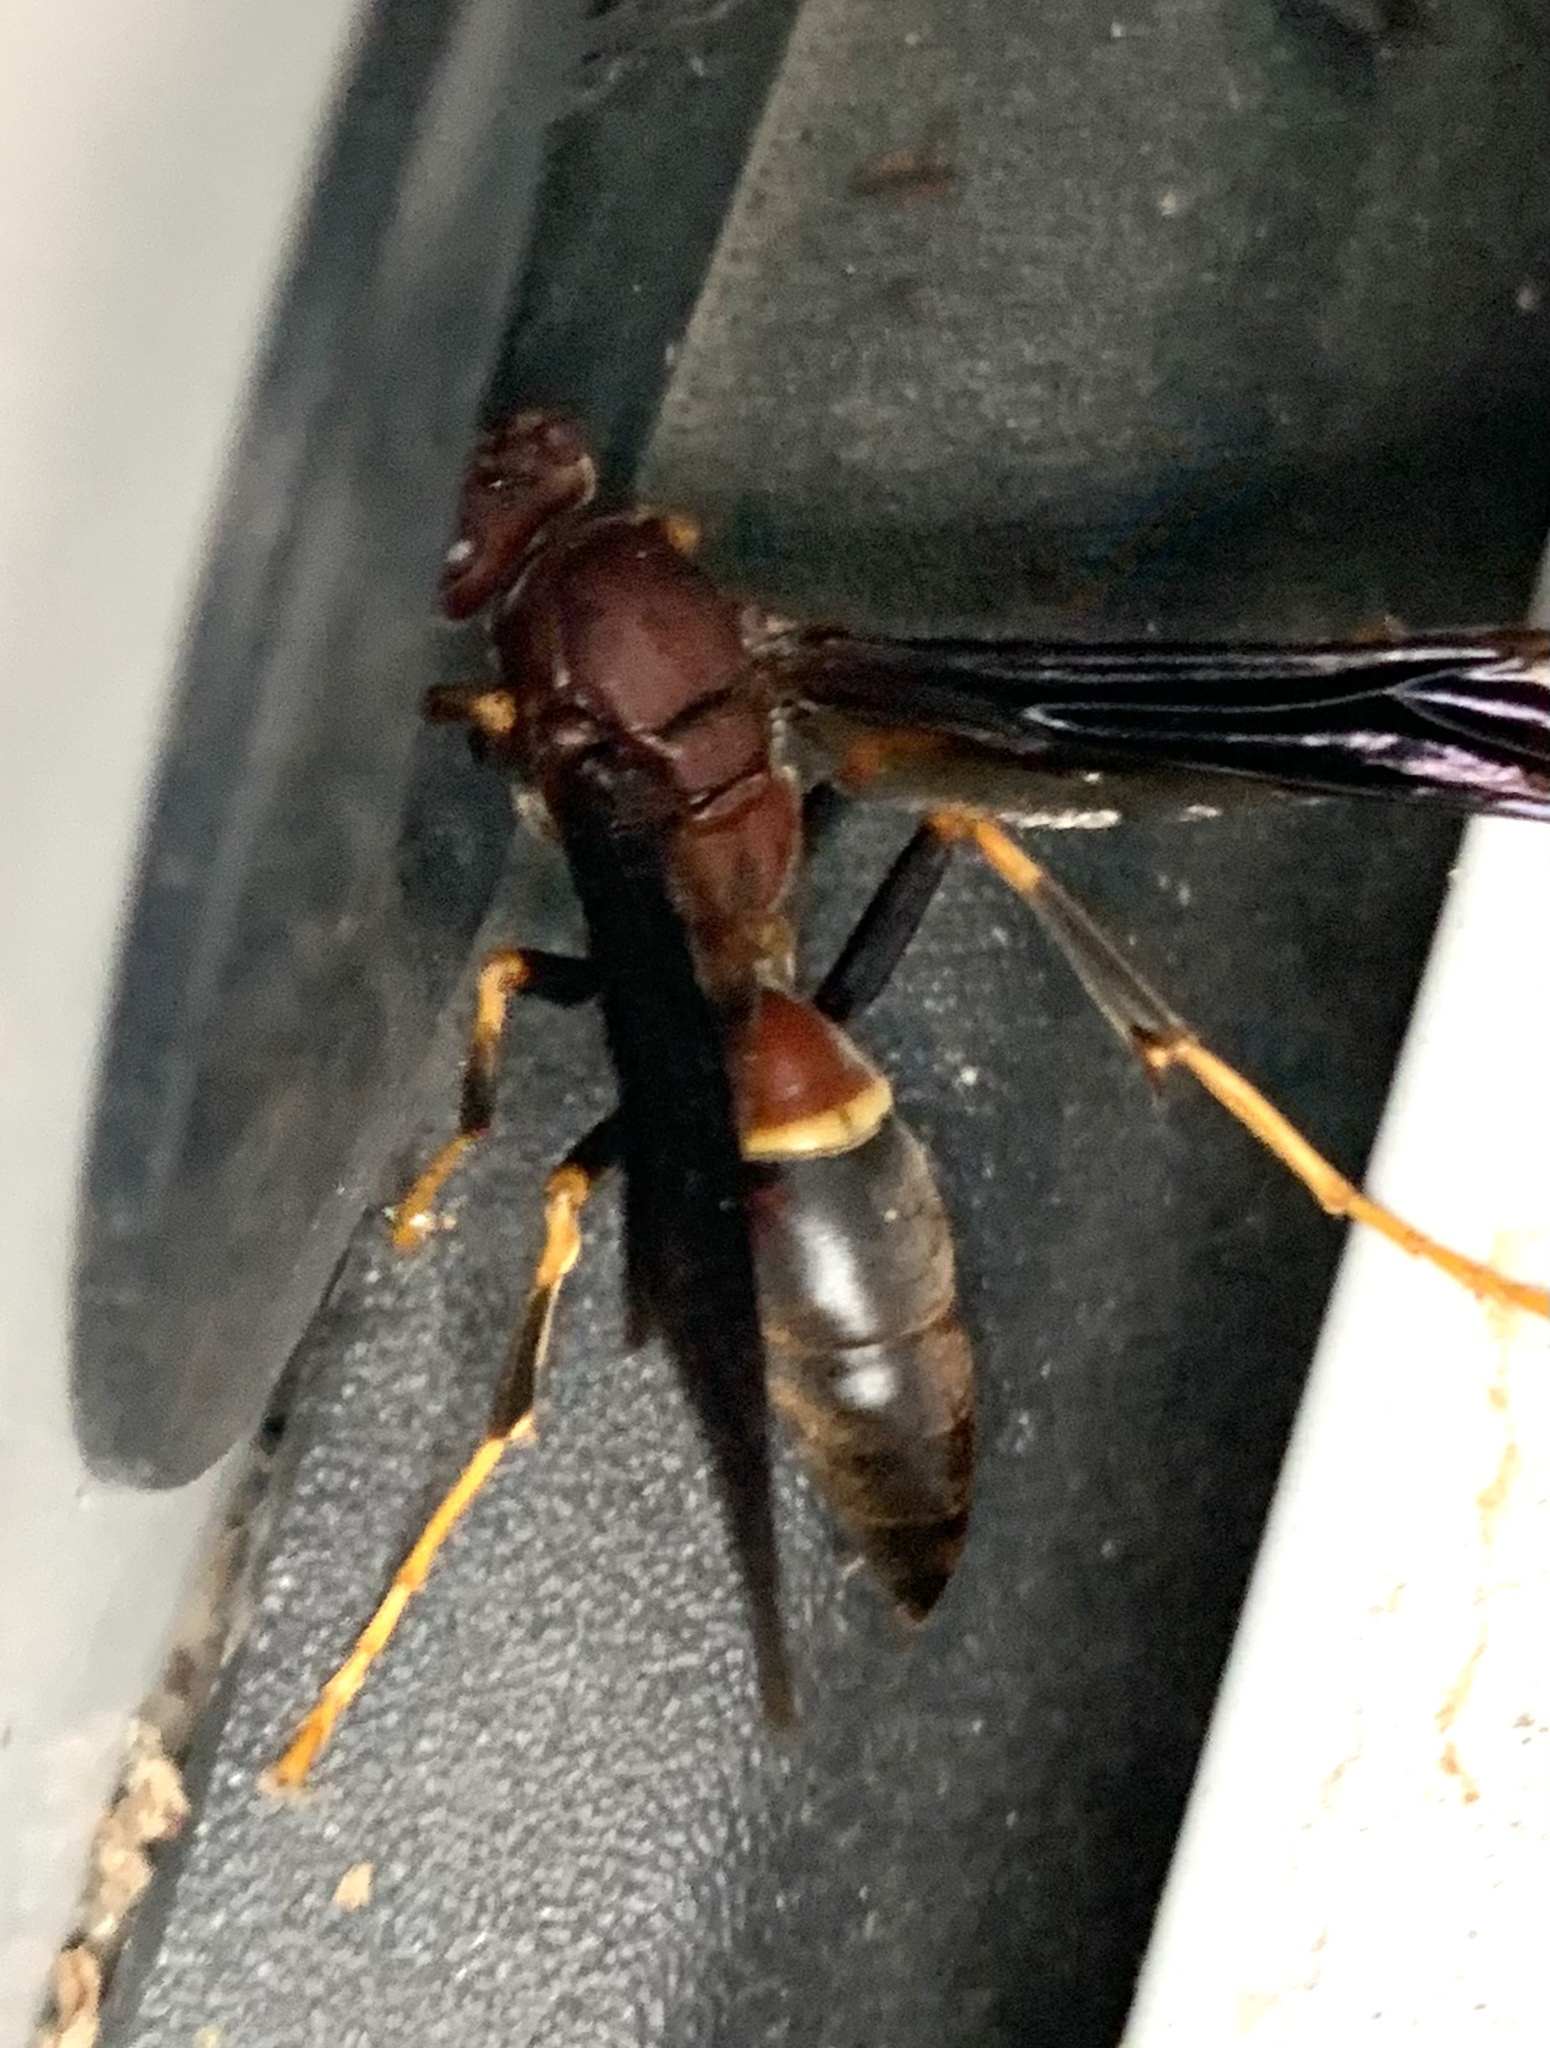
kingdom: Animalia
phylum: Arthropoda
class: Insecta
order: Hymenoptera
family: Eumenidae
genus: Polistes
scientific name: Polistes annularis
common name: Ringed paper wasp
